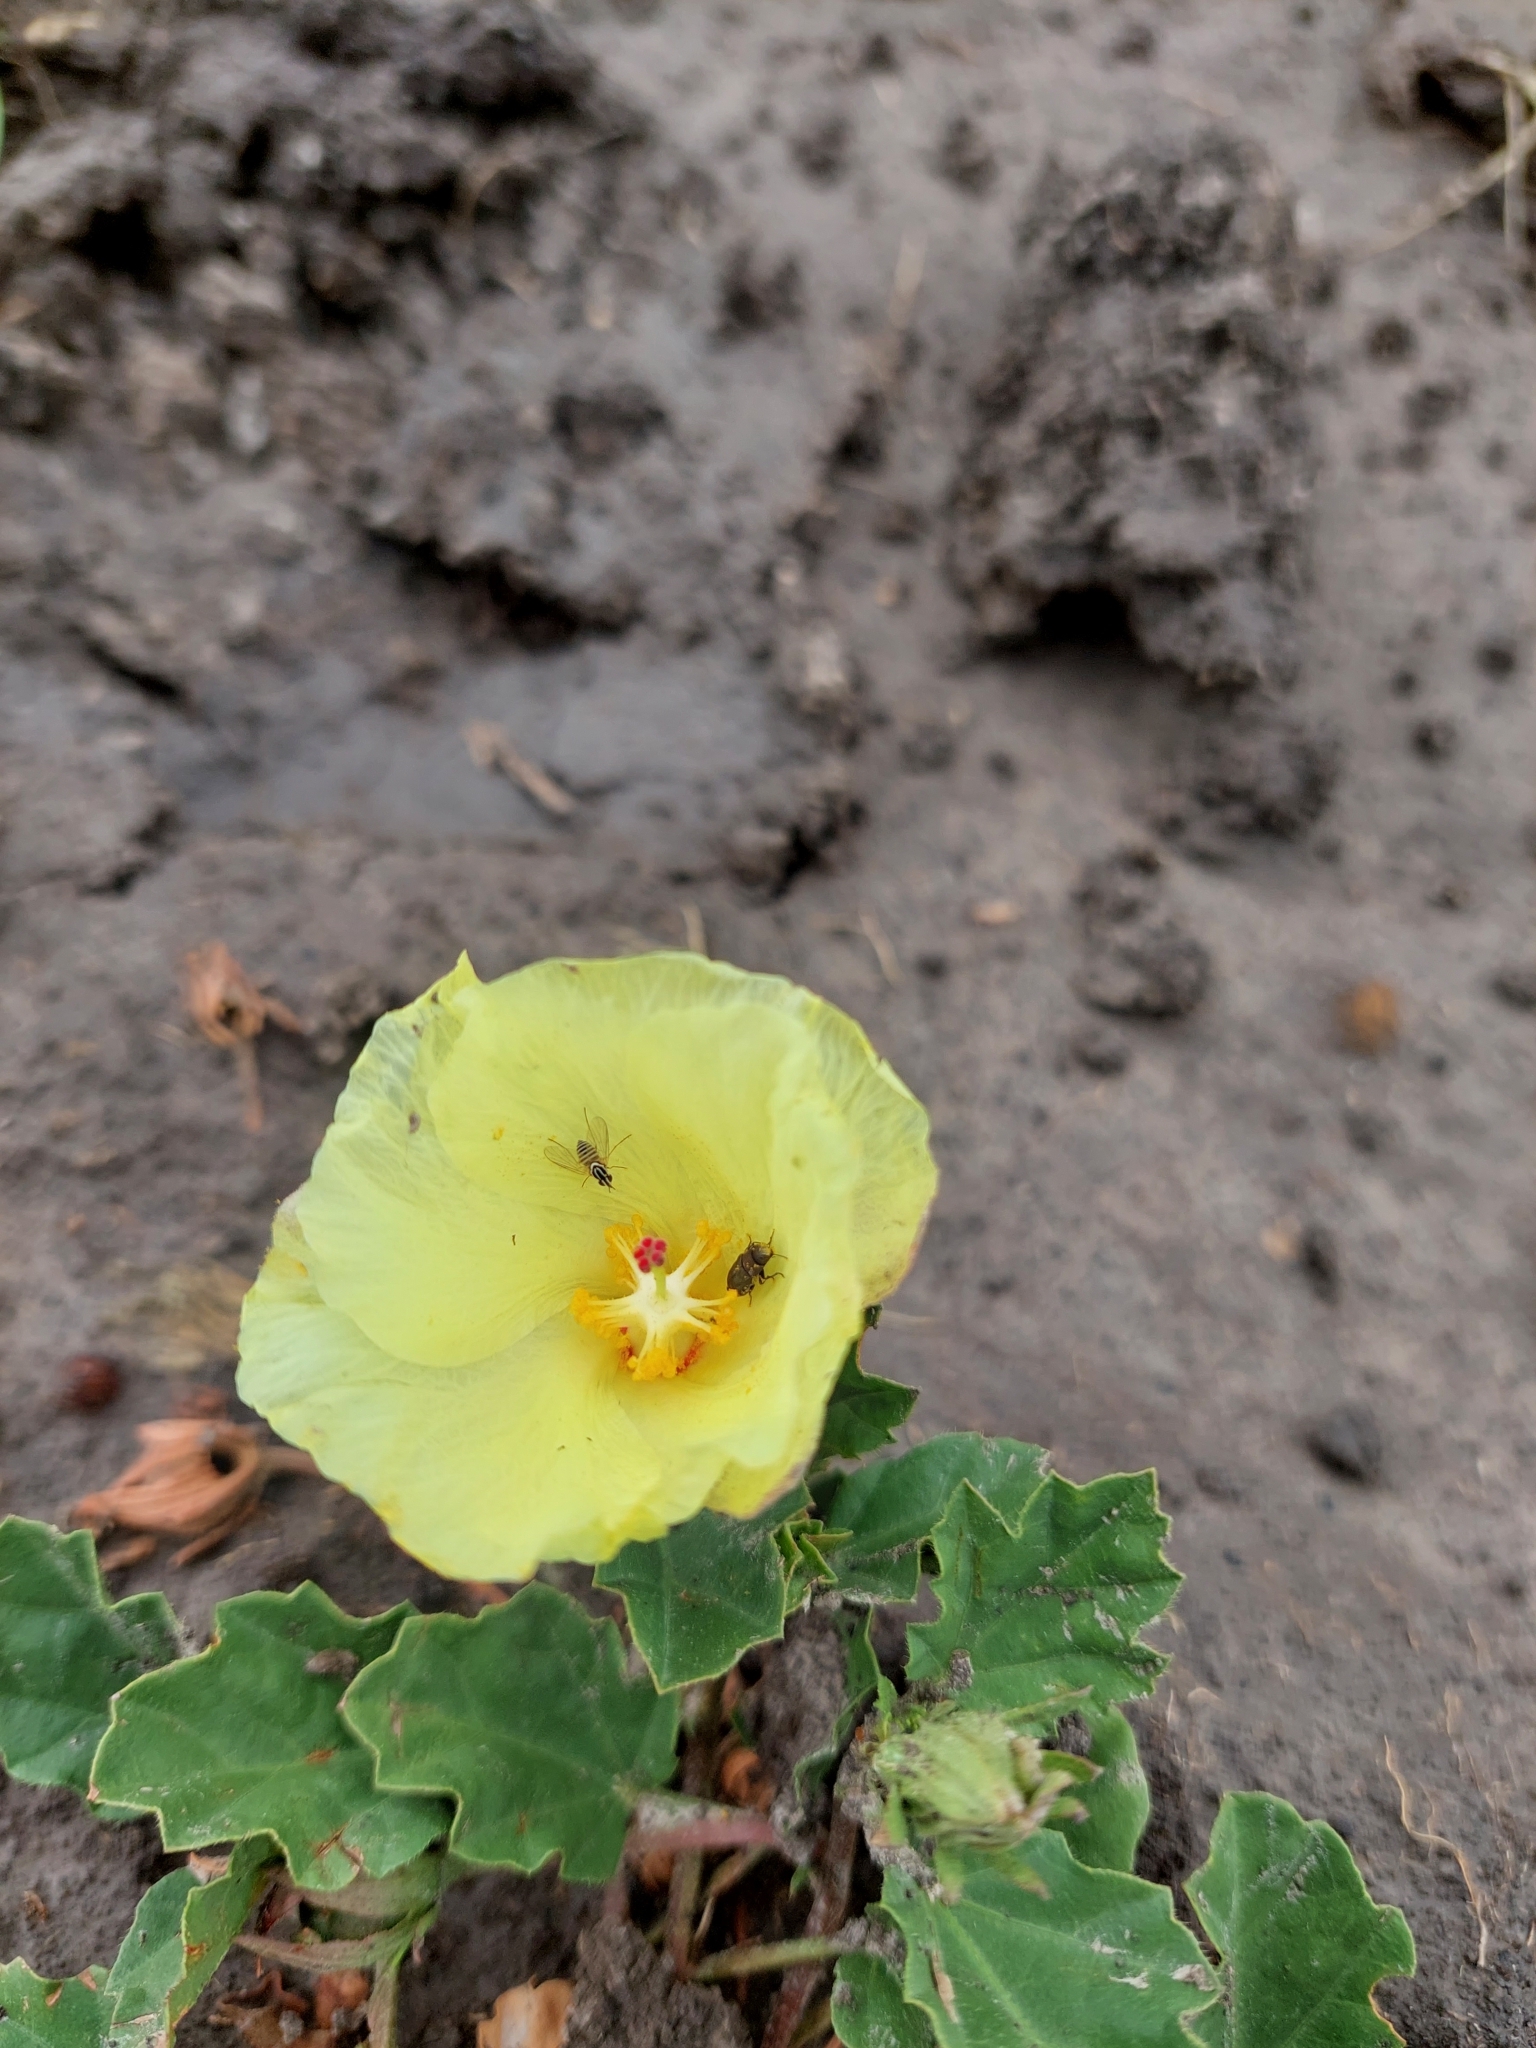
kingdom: Plantae
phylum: Tracheophyta
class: Magnoliopsida
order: Malvales
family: Malvaceae
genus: Cienfuegosia
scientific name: Cienfuegosia
